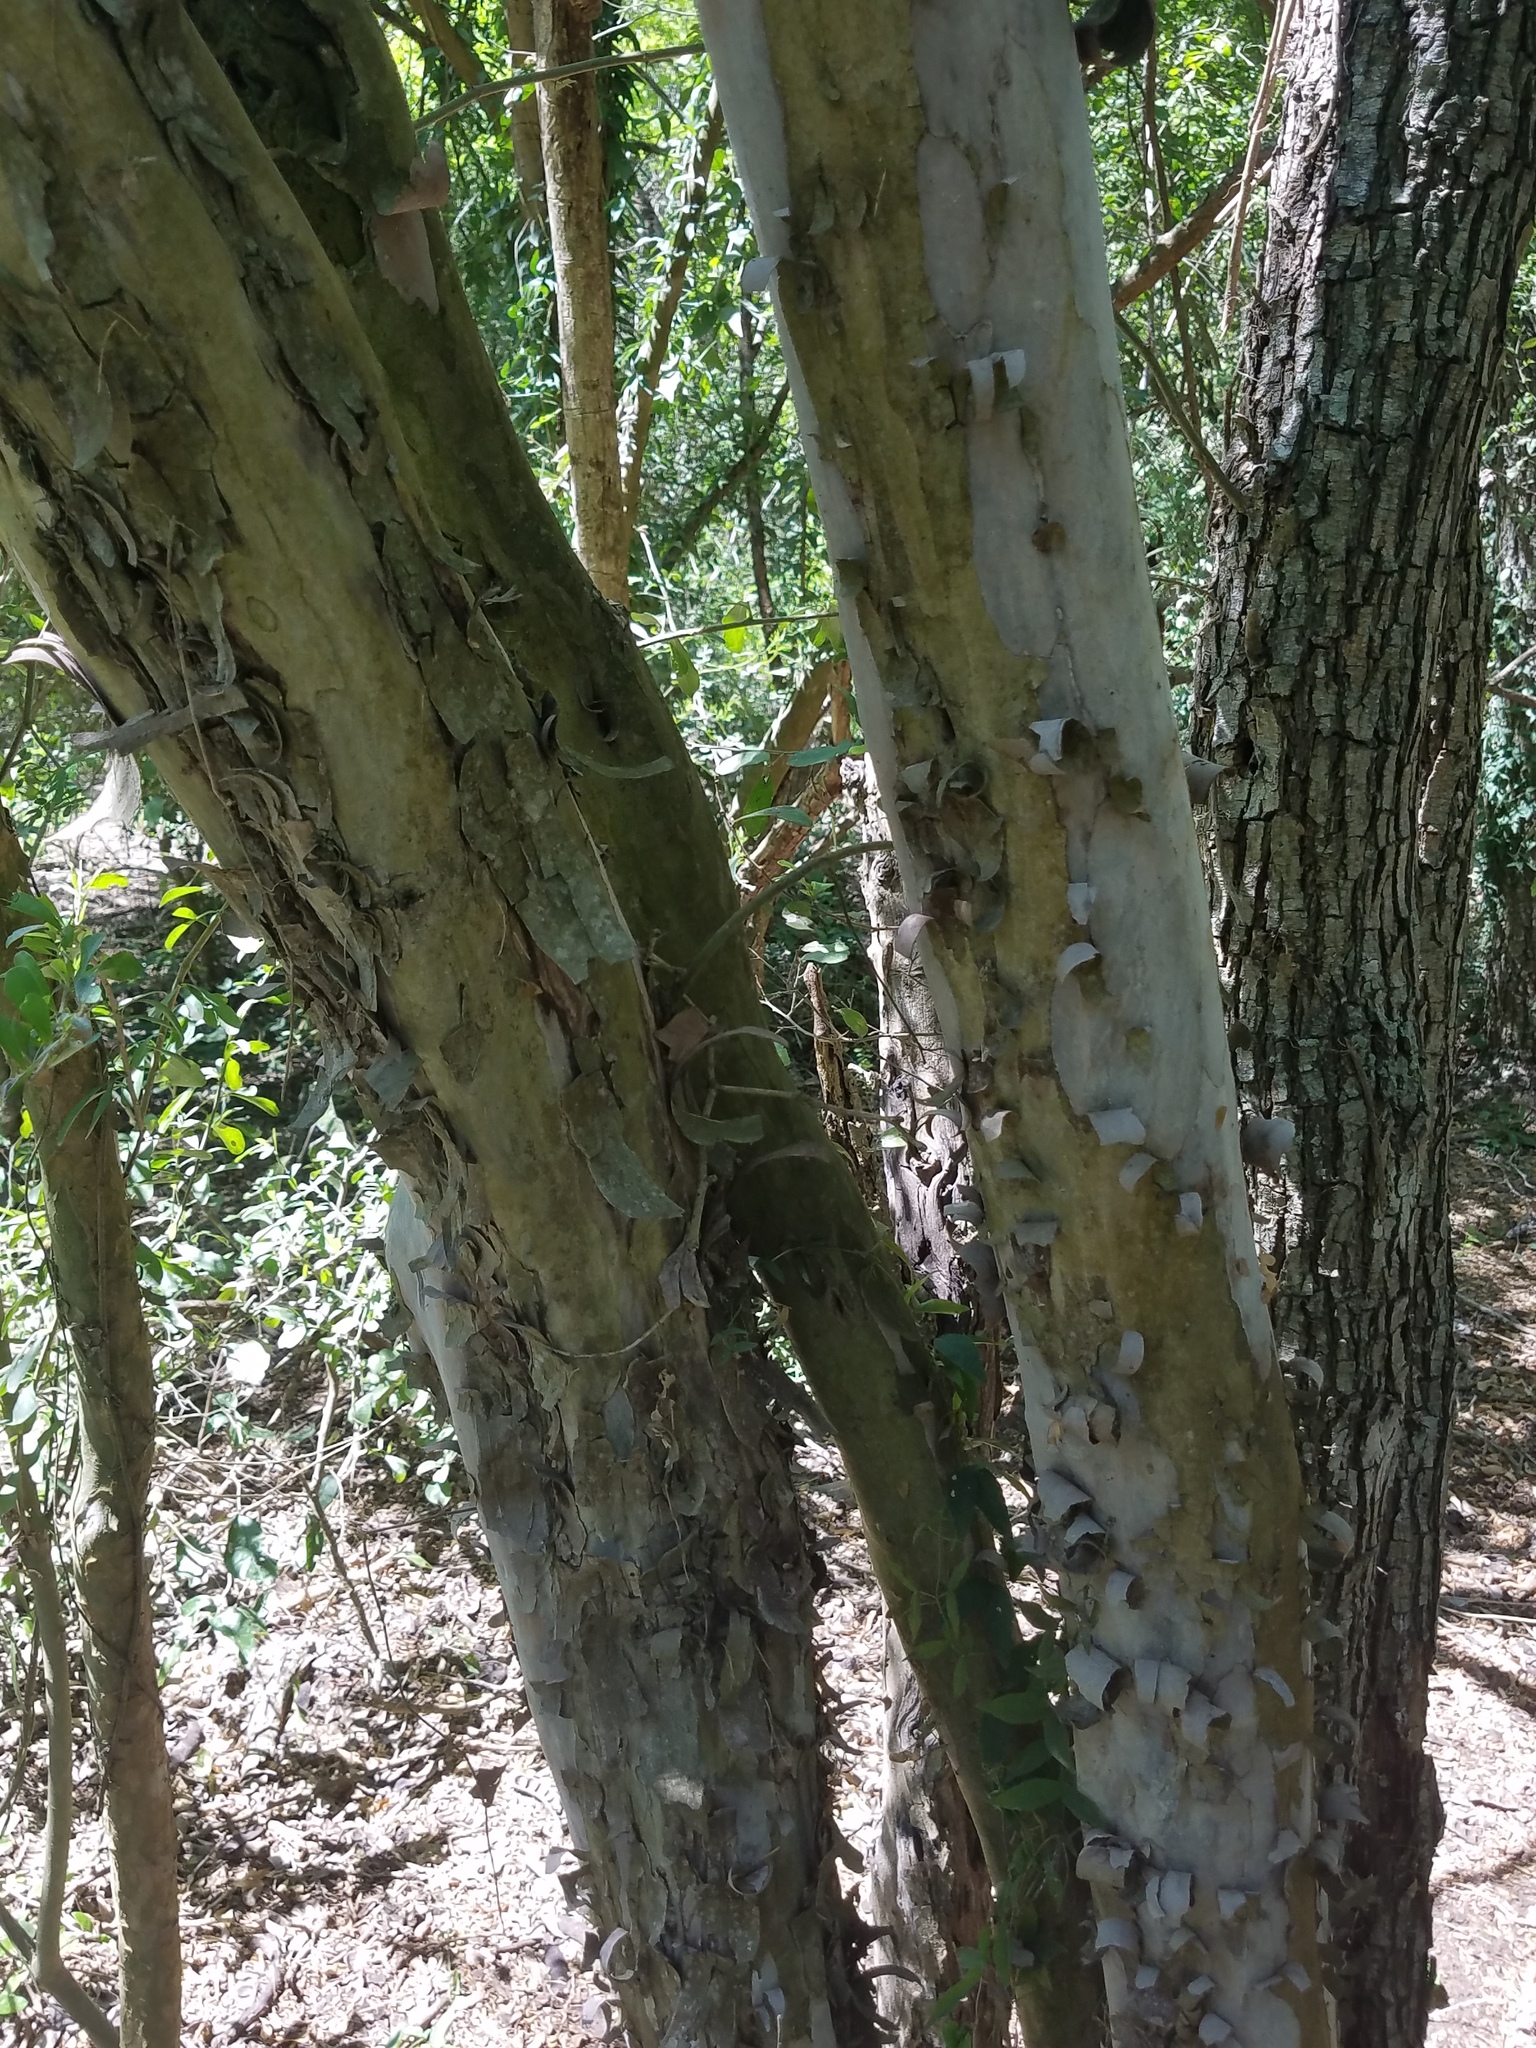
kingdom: Plantae
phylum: Tracheophyta
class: Magnoliopsida
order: Ericales
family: Ebenaceae
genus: Diospyros
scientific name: Diospyros texana
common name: Texas persimmon
